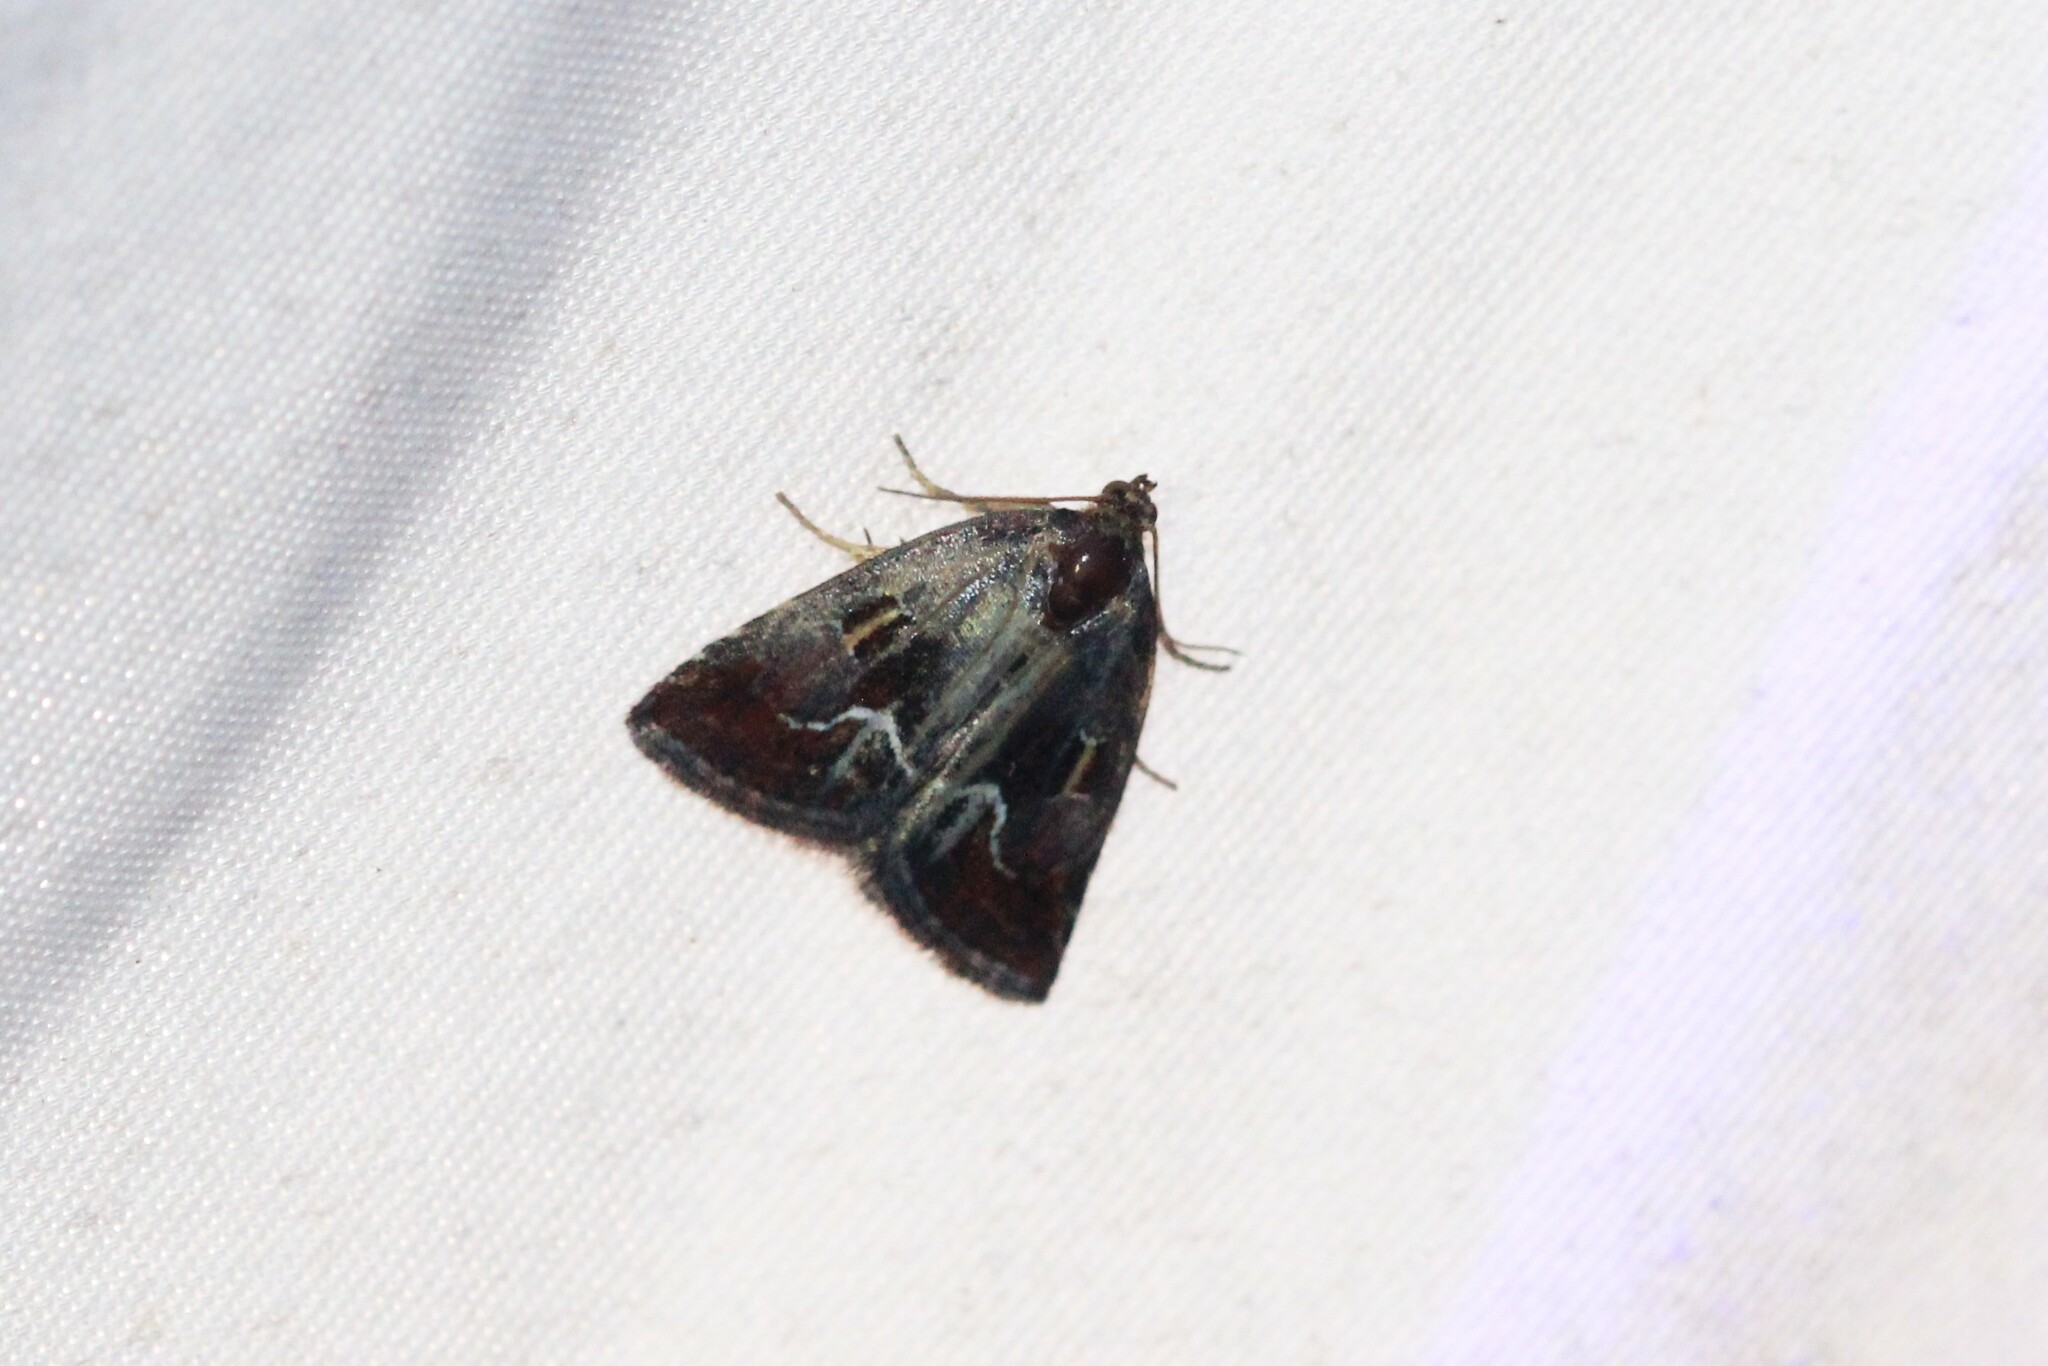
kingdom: Animalia
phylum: Arthropoda
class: Insecta
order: Lepidoptera
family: Noctuidae
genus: Deltote
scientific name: Deltote bellicula
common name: Bog glyph
